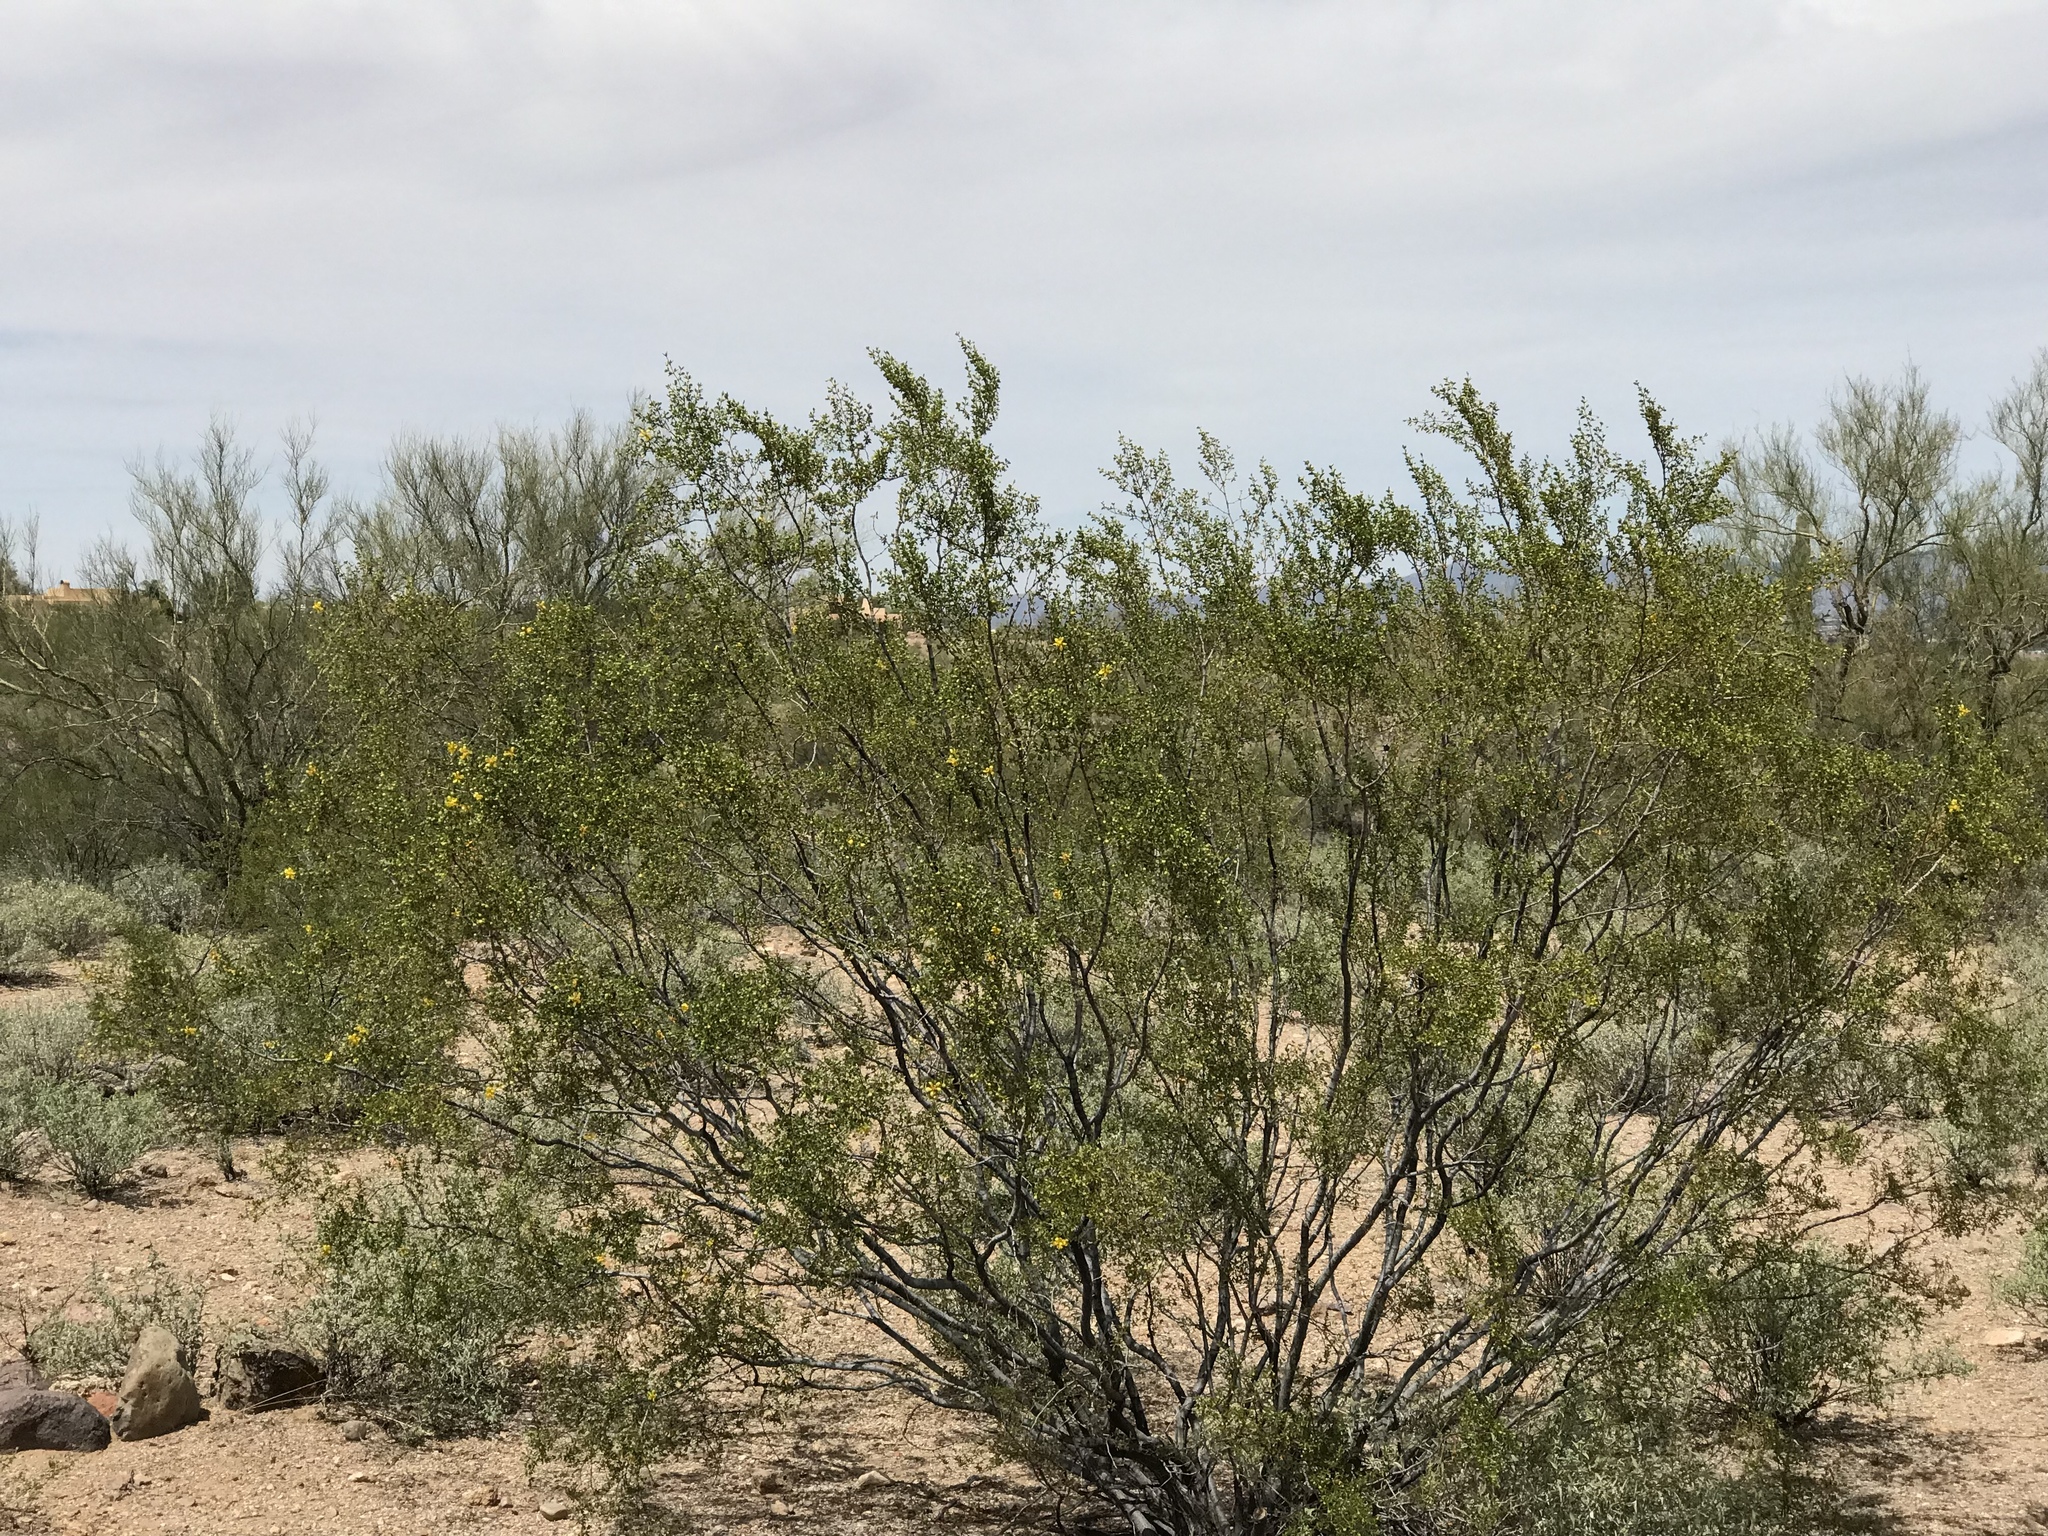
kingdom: Plantae
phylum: Tracheophyta
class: Magnoliopsida
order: Zygophyllales
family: Zygophyllaceae
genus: Larrea
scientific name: Larrea tridentata
